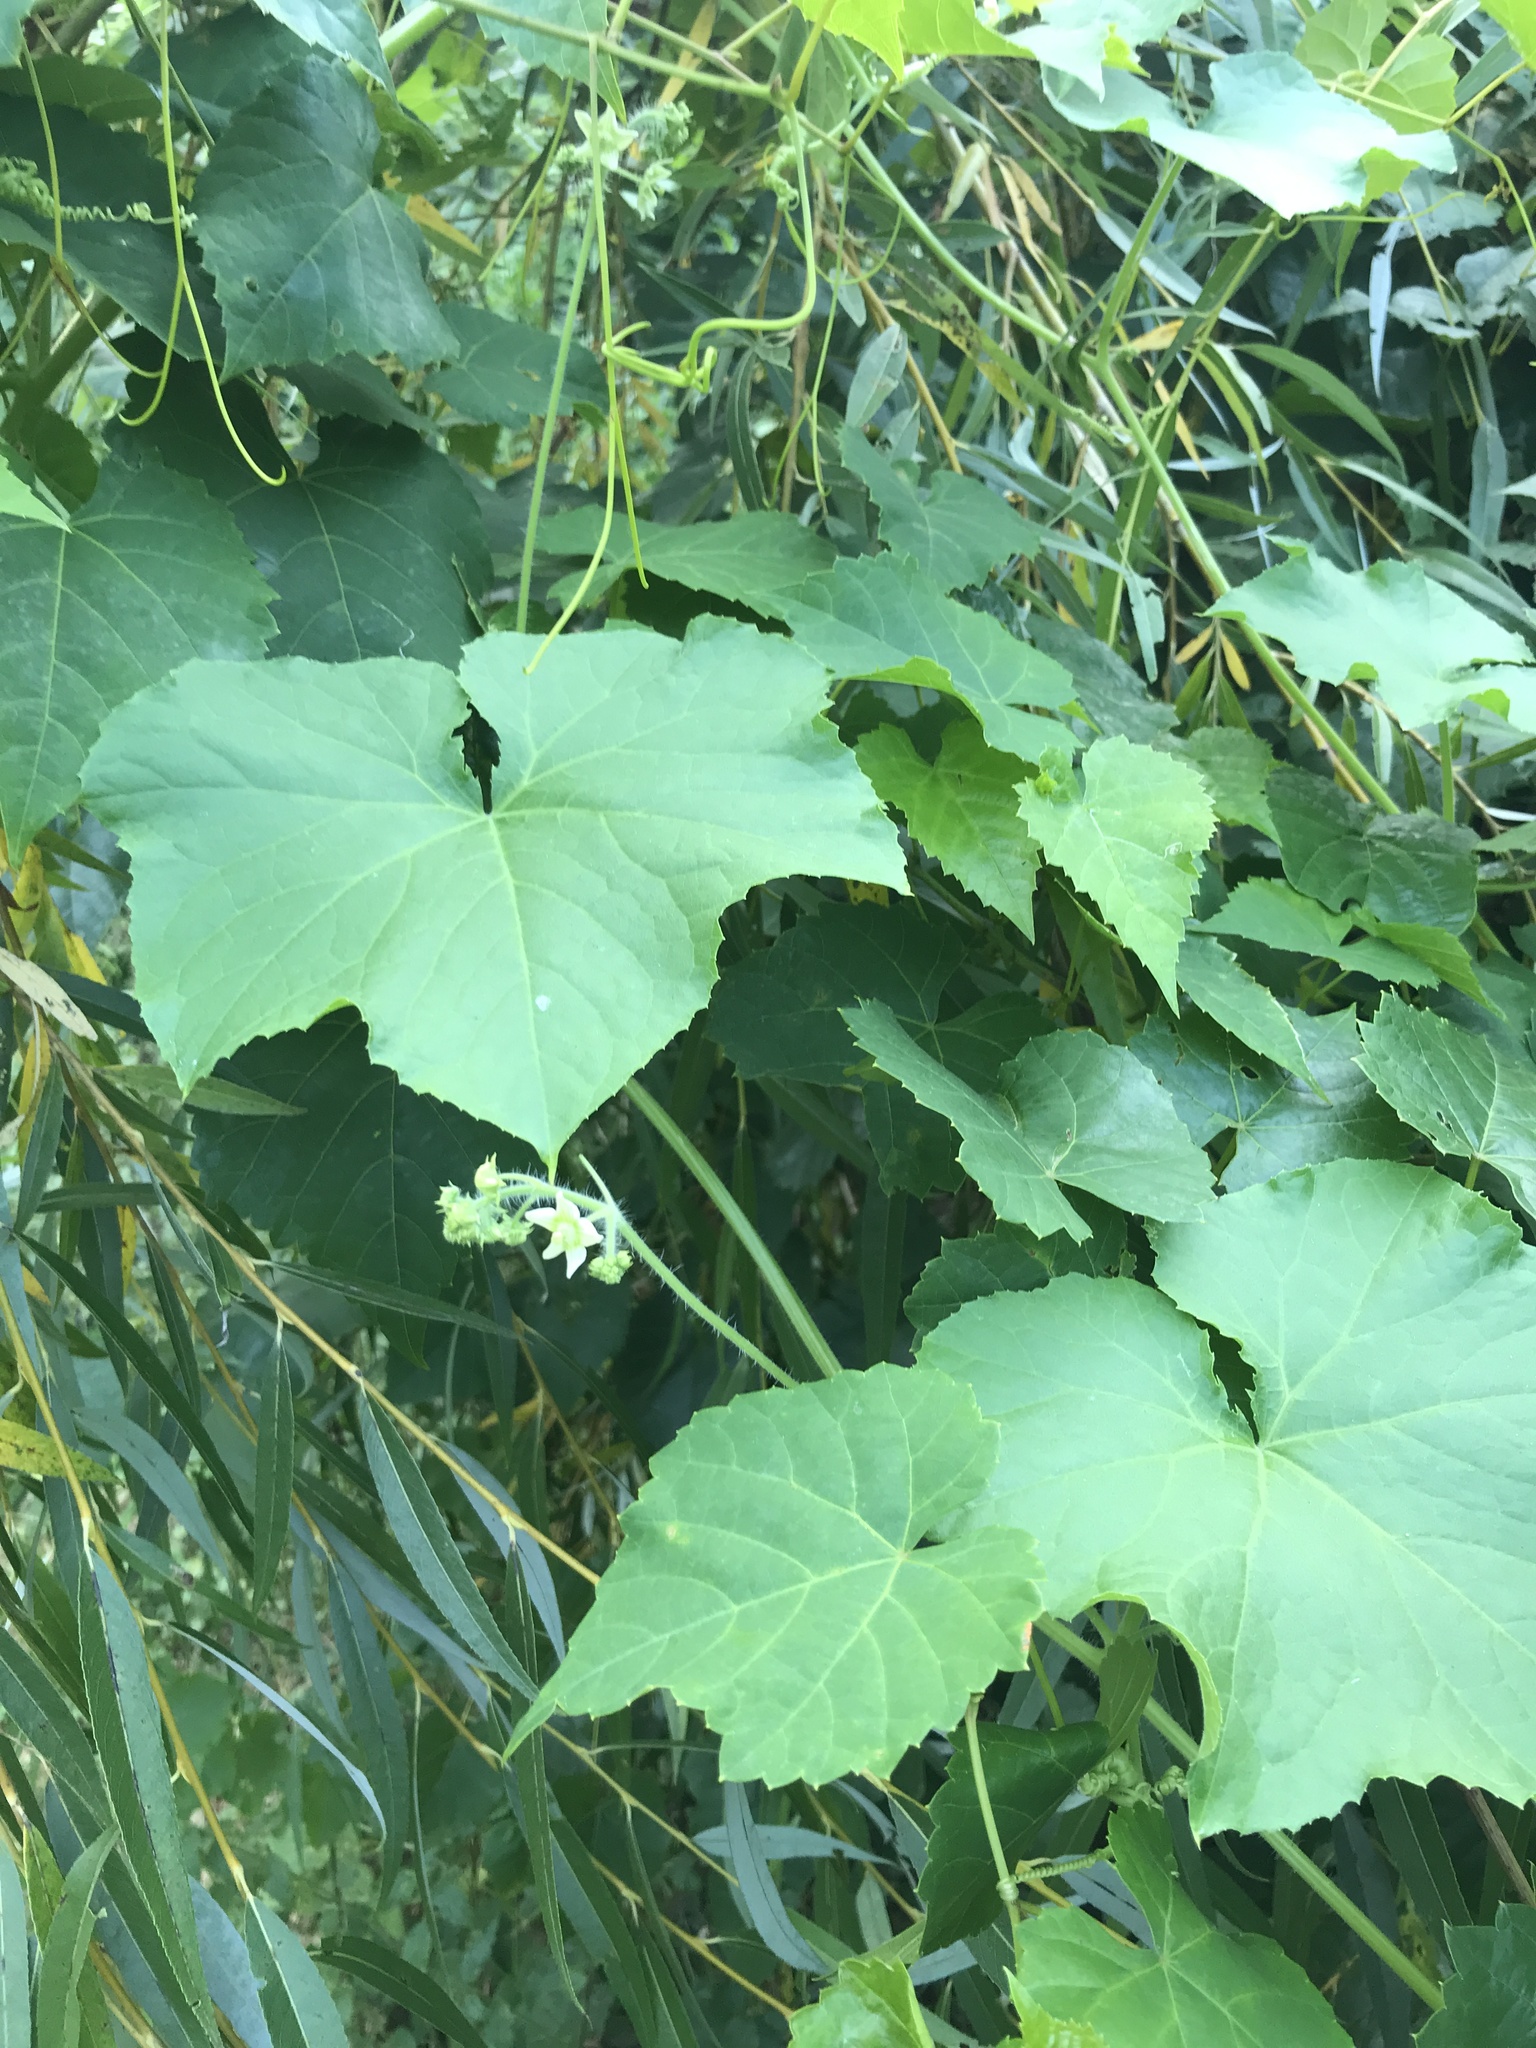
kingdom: Plantae
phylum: Tracheophyta
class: Magnoliopsida
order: Cucurbitales
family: Cucurbitaceae
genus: Sicyos
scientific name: Sicyos angulatus
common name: Angled burr cucumber
